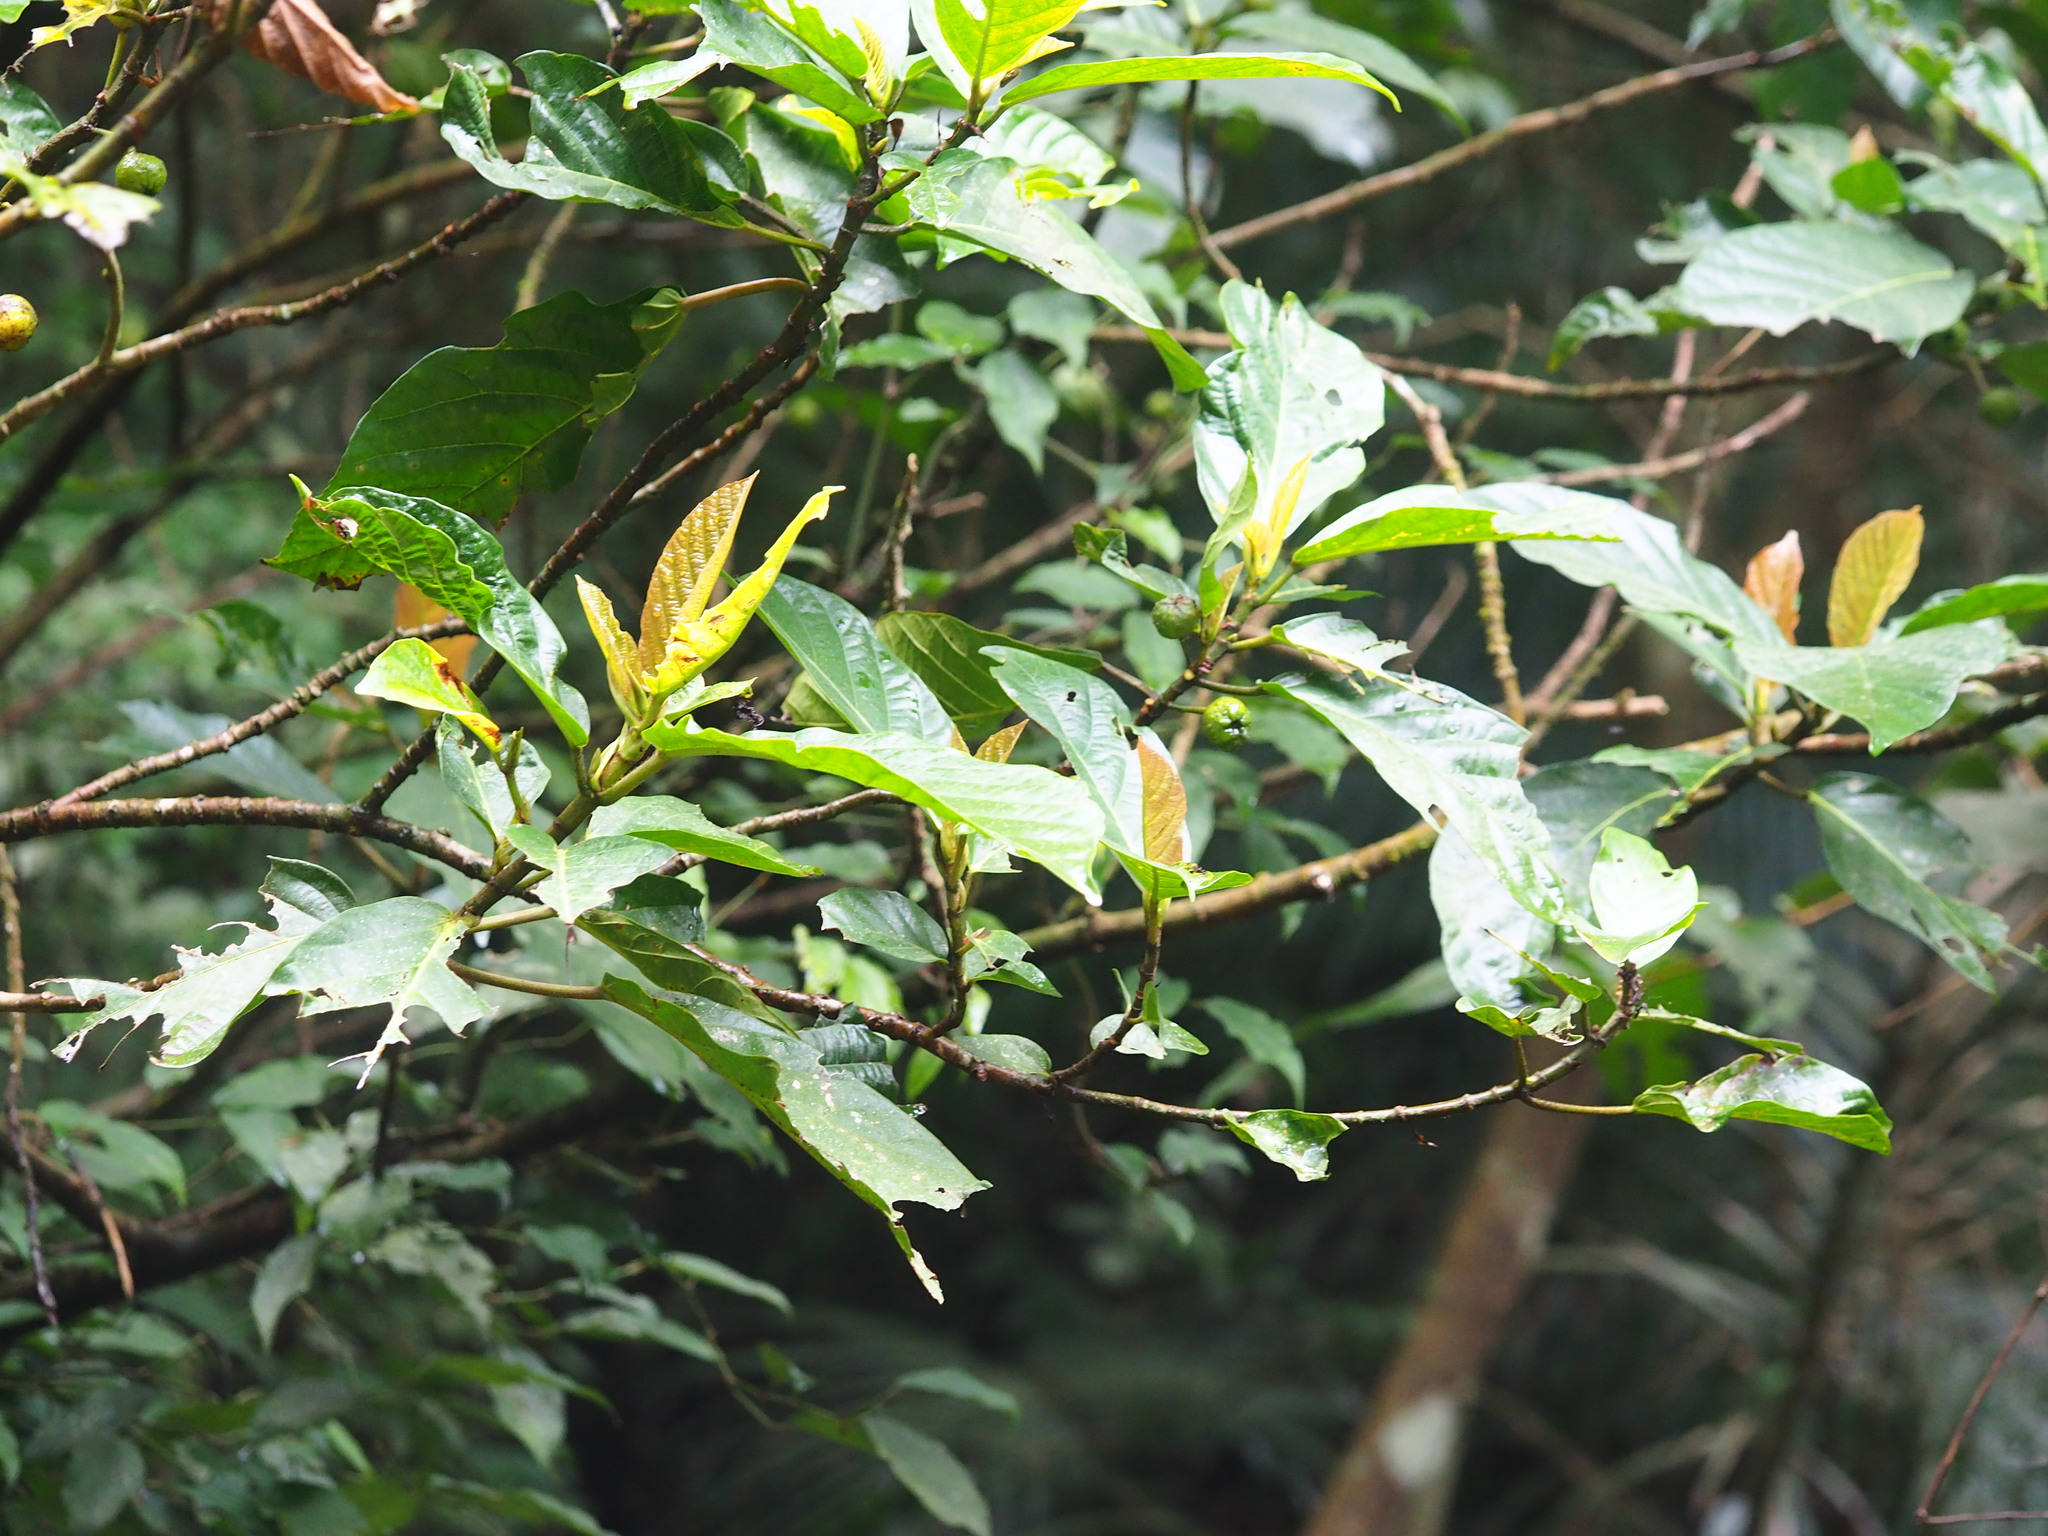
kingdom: Plantae
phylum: Tracheophyta
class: Magnoliopsida
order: Rosales
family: Moraceae
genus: Ficus
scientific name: Ficus benguetensis
